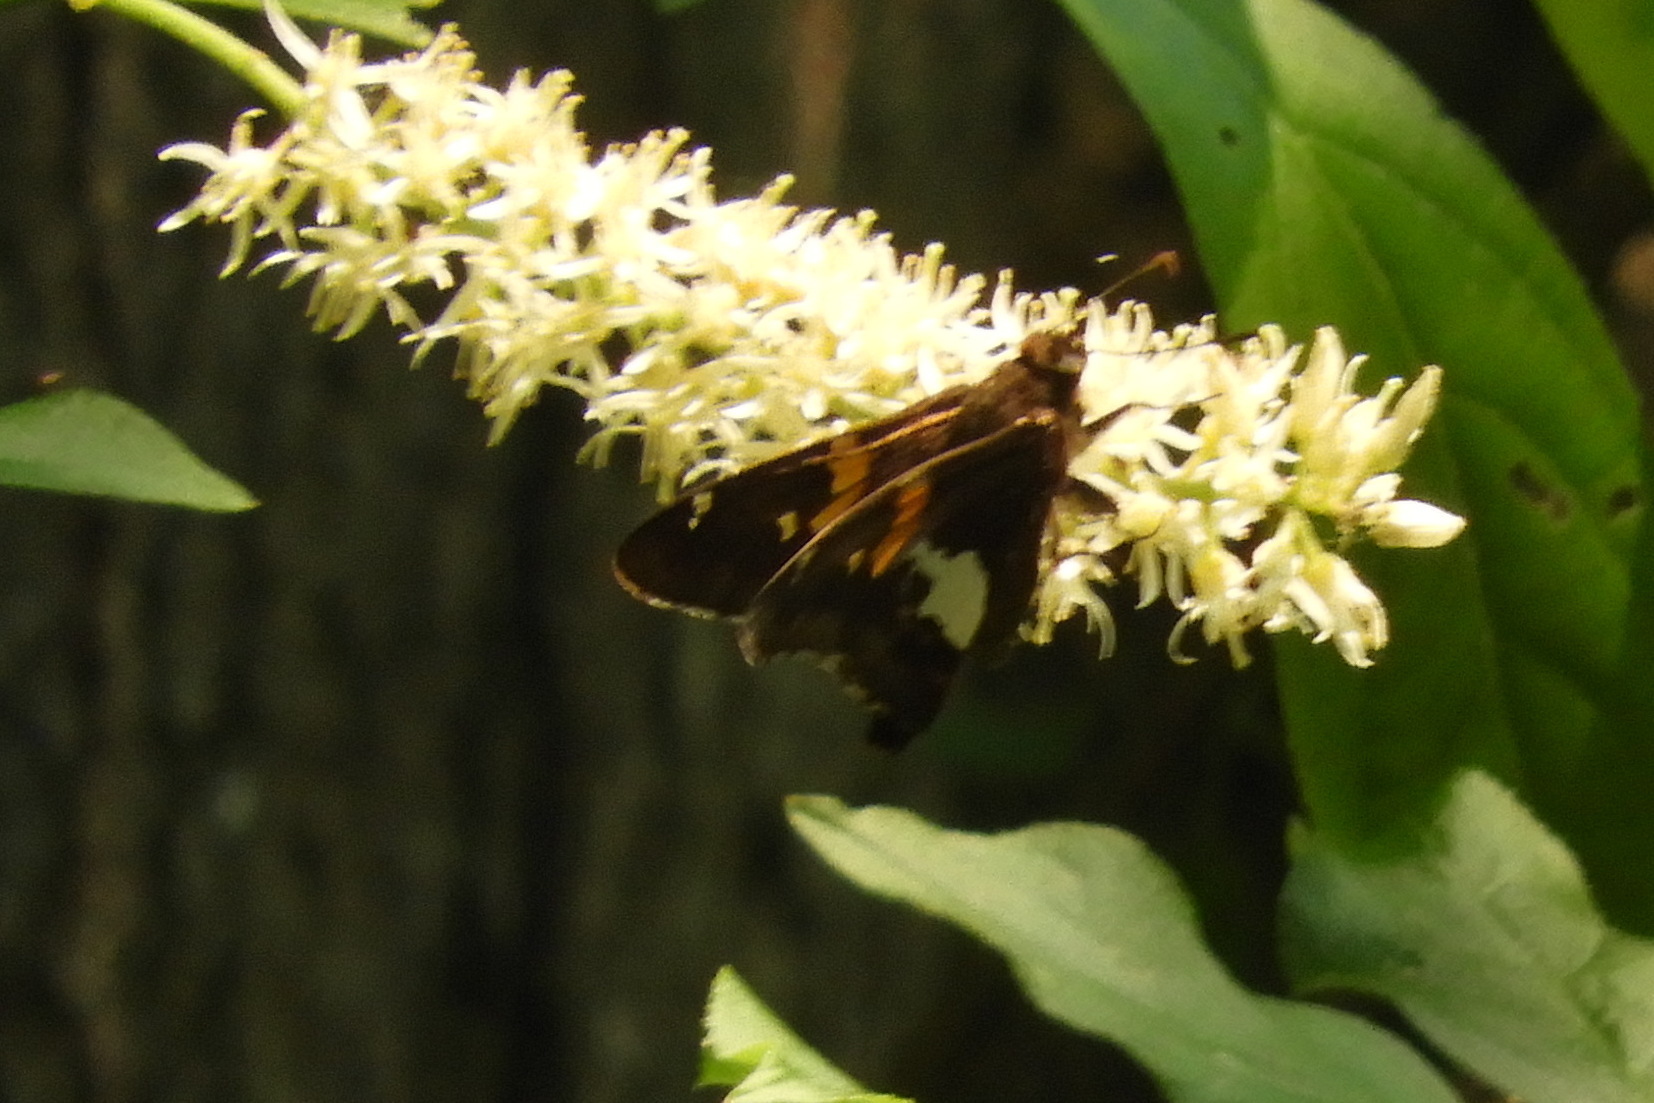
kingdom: Animalia
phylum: Arthropoda
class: Insecta
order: Lepidoptera
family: Hesperiidae
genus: Epargyreus
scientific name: Epargyreus clarus
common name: Silver-spotted skipper
